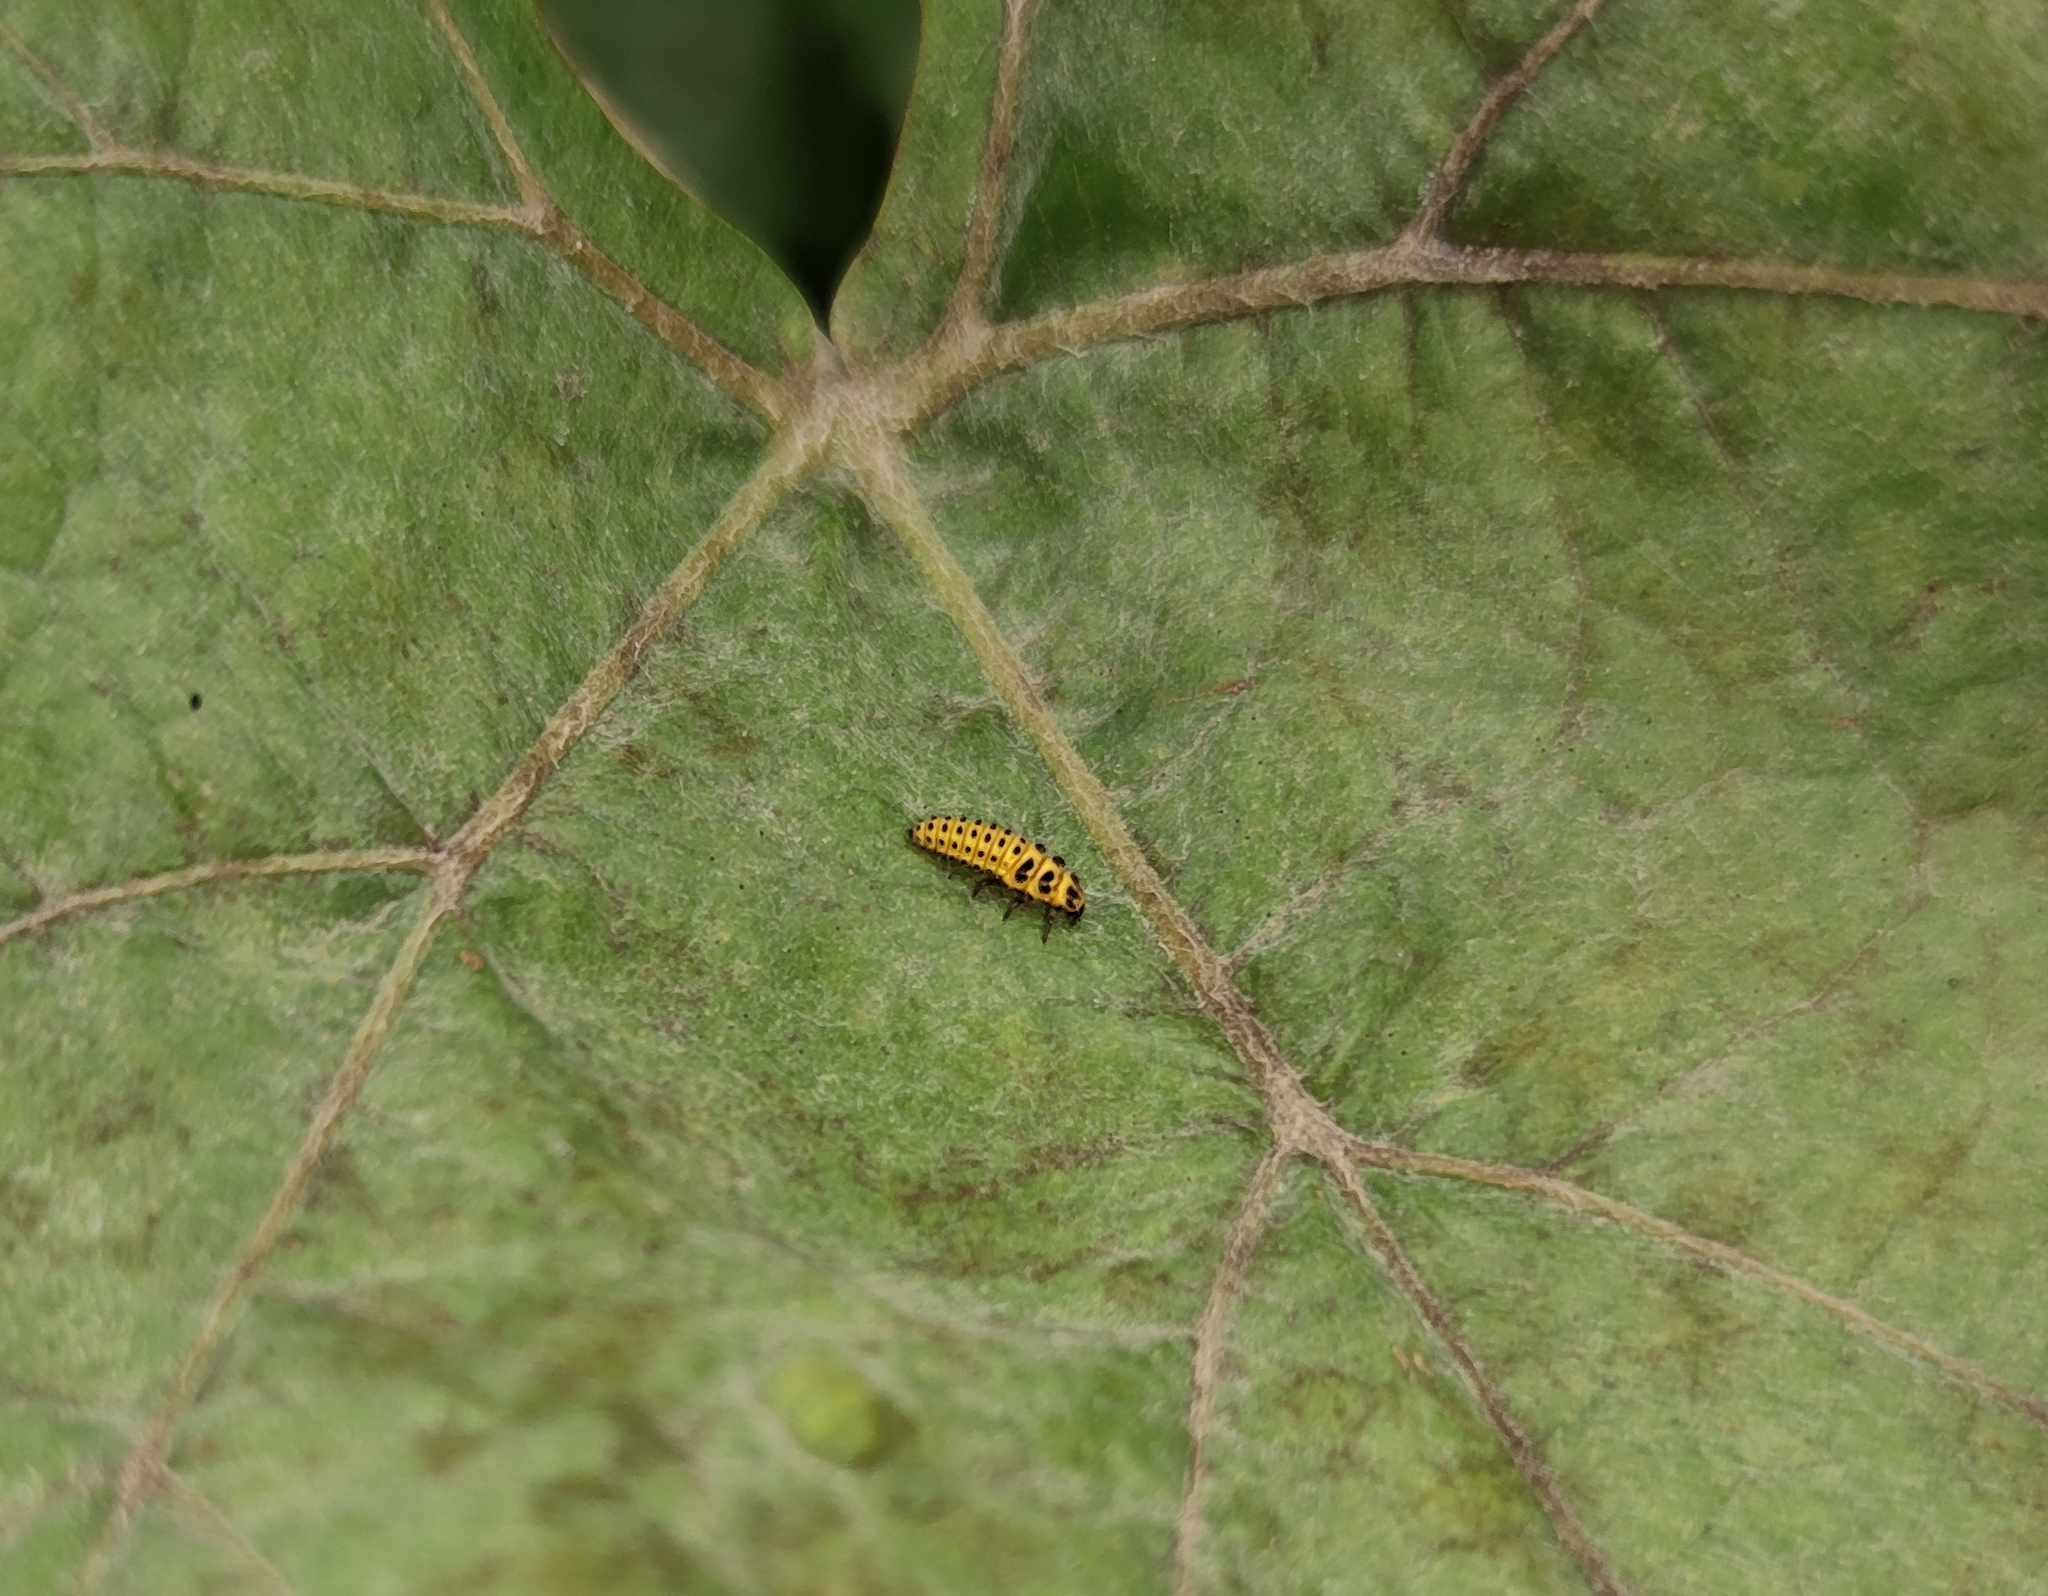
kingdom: Animalia
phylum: Arthropoda
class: Insecta
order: Coleoptera
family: Coccinellidae
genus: Psyllobora
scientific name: Psyllobora vigintiduopunctata
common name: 22-spot ladybird
